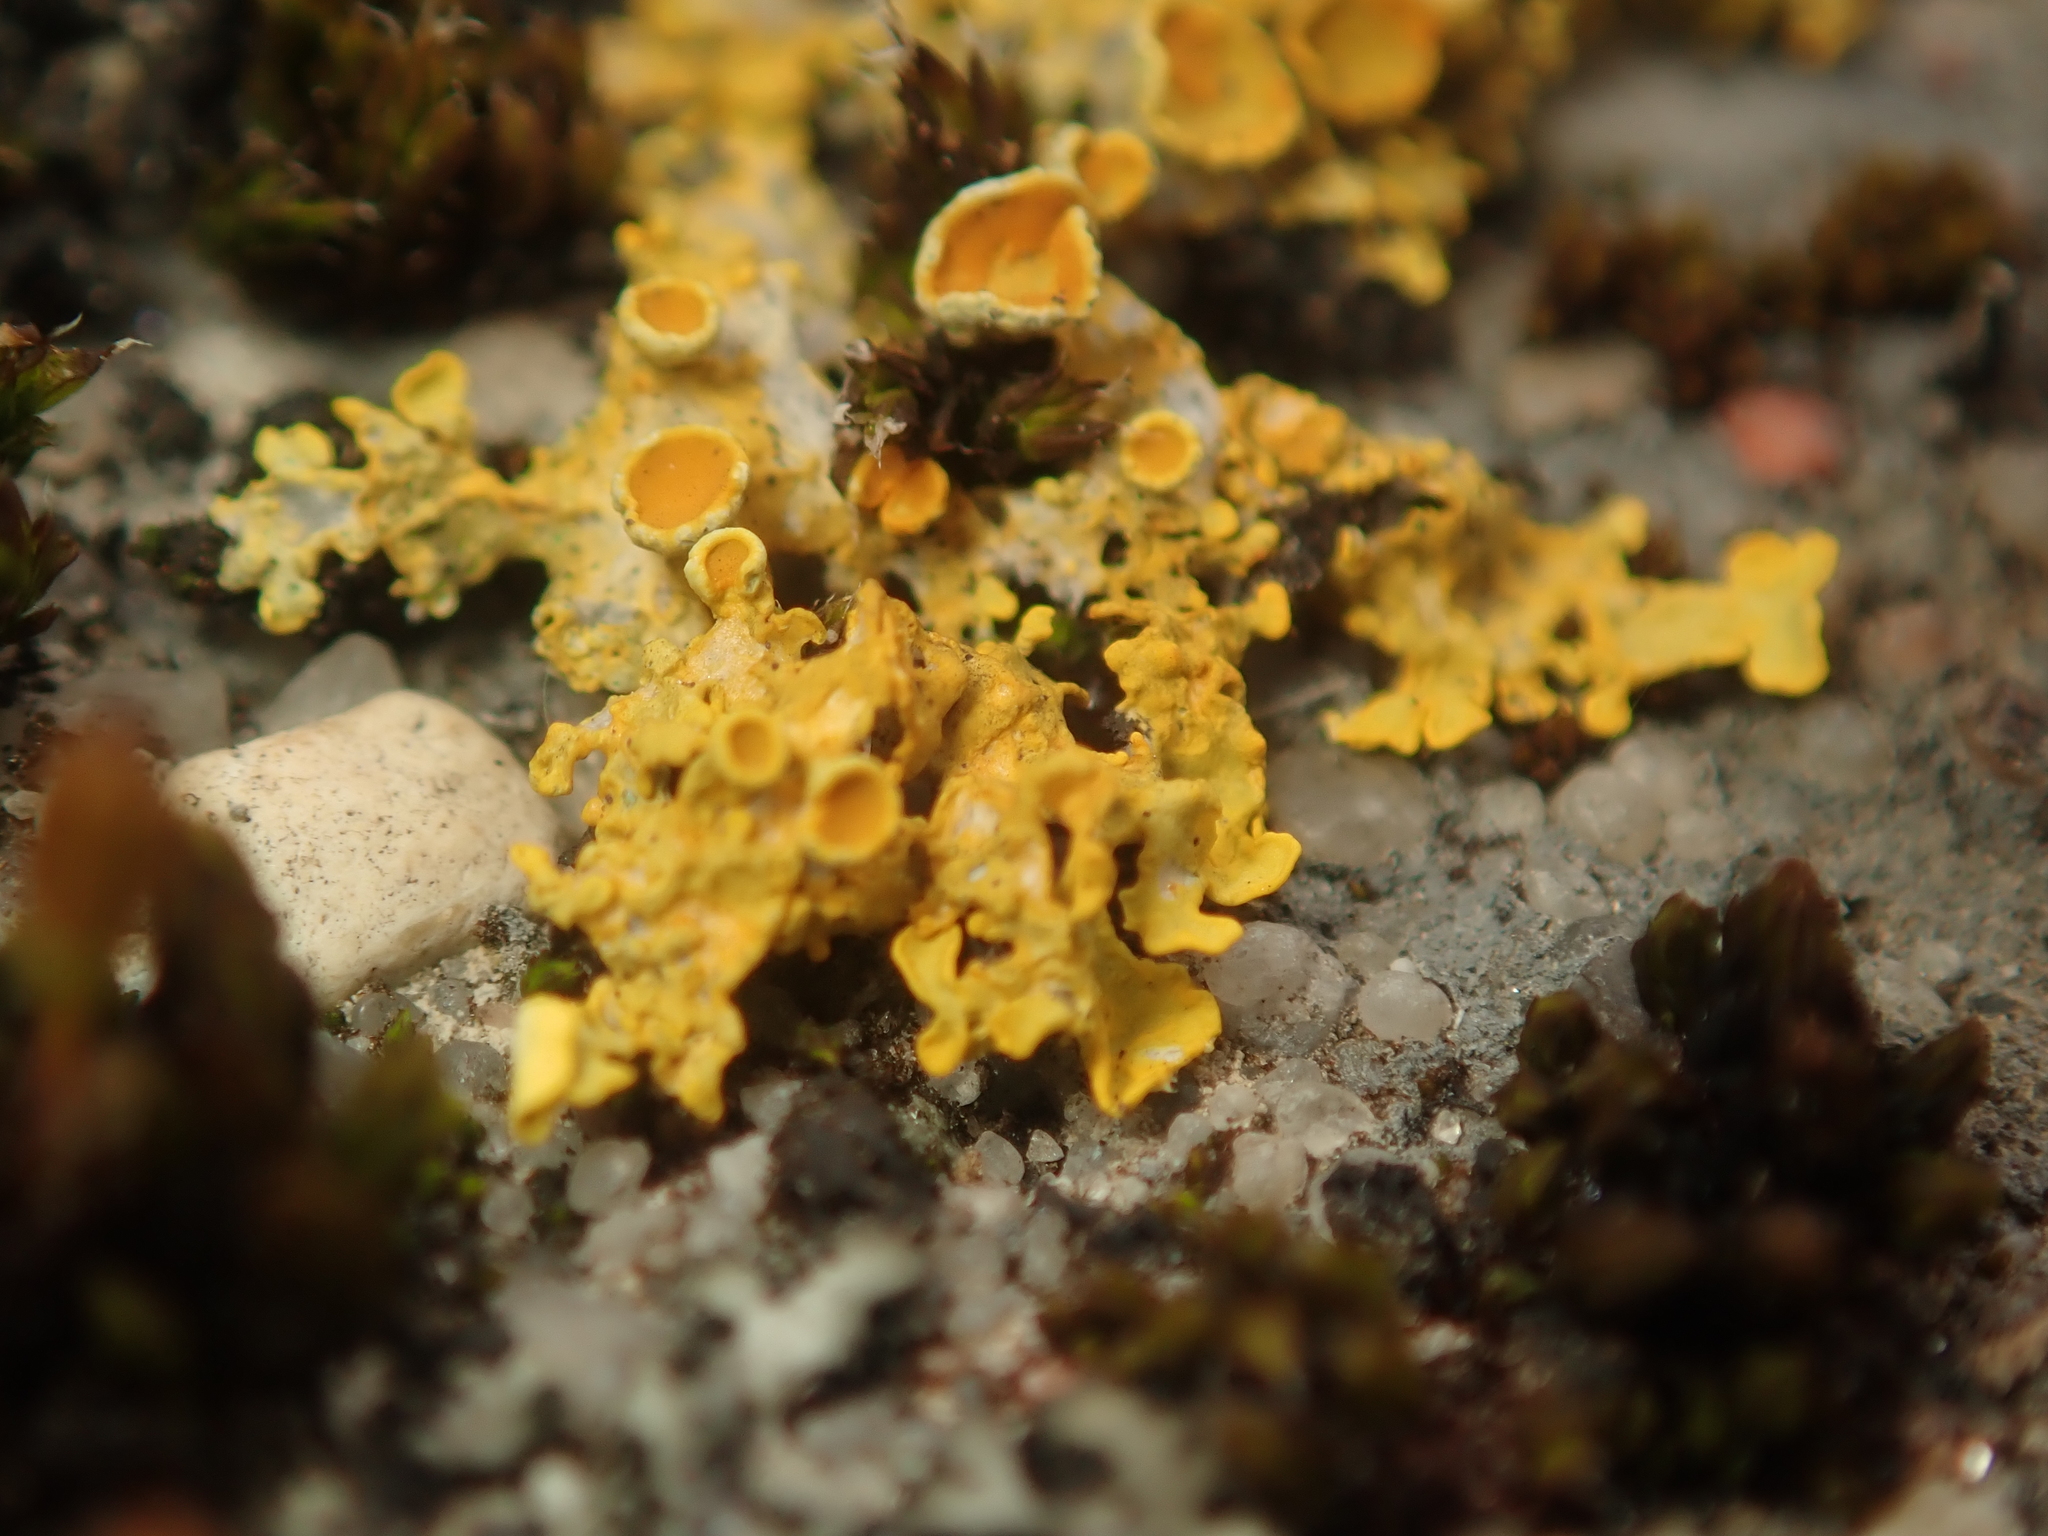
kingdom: Fungi
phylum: Ascomycota
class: Lecanoromycetes
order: Teloschistales
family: Teloschistaceae
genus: Xanthoria
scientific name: Xanthoria parietina
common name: Common orange lichen
